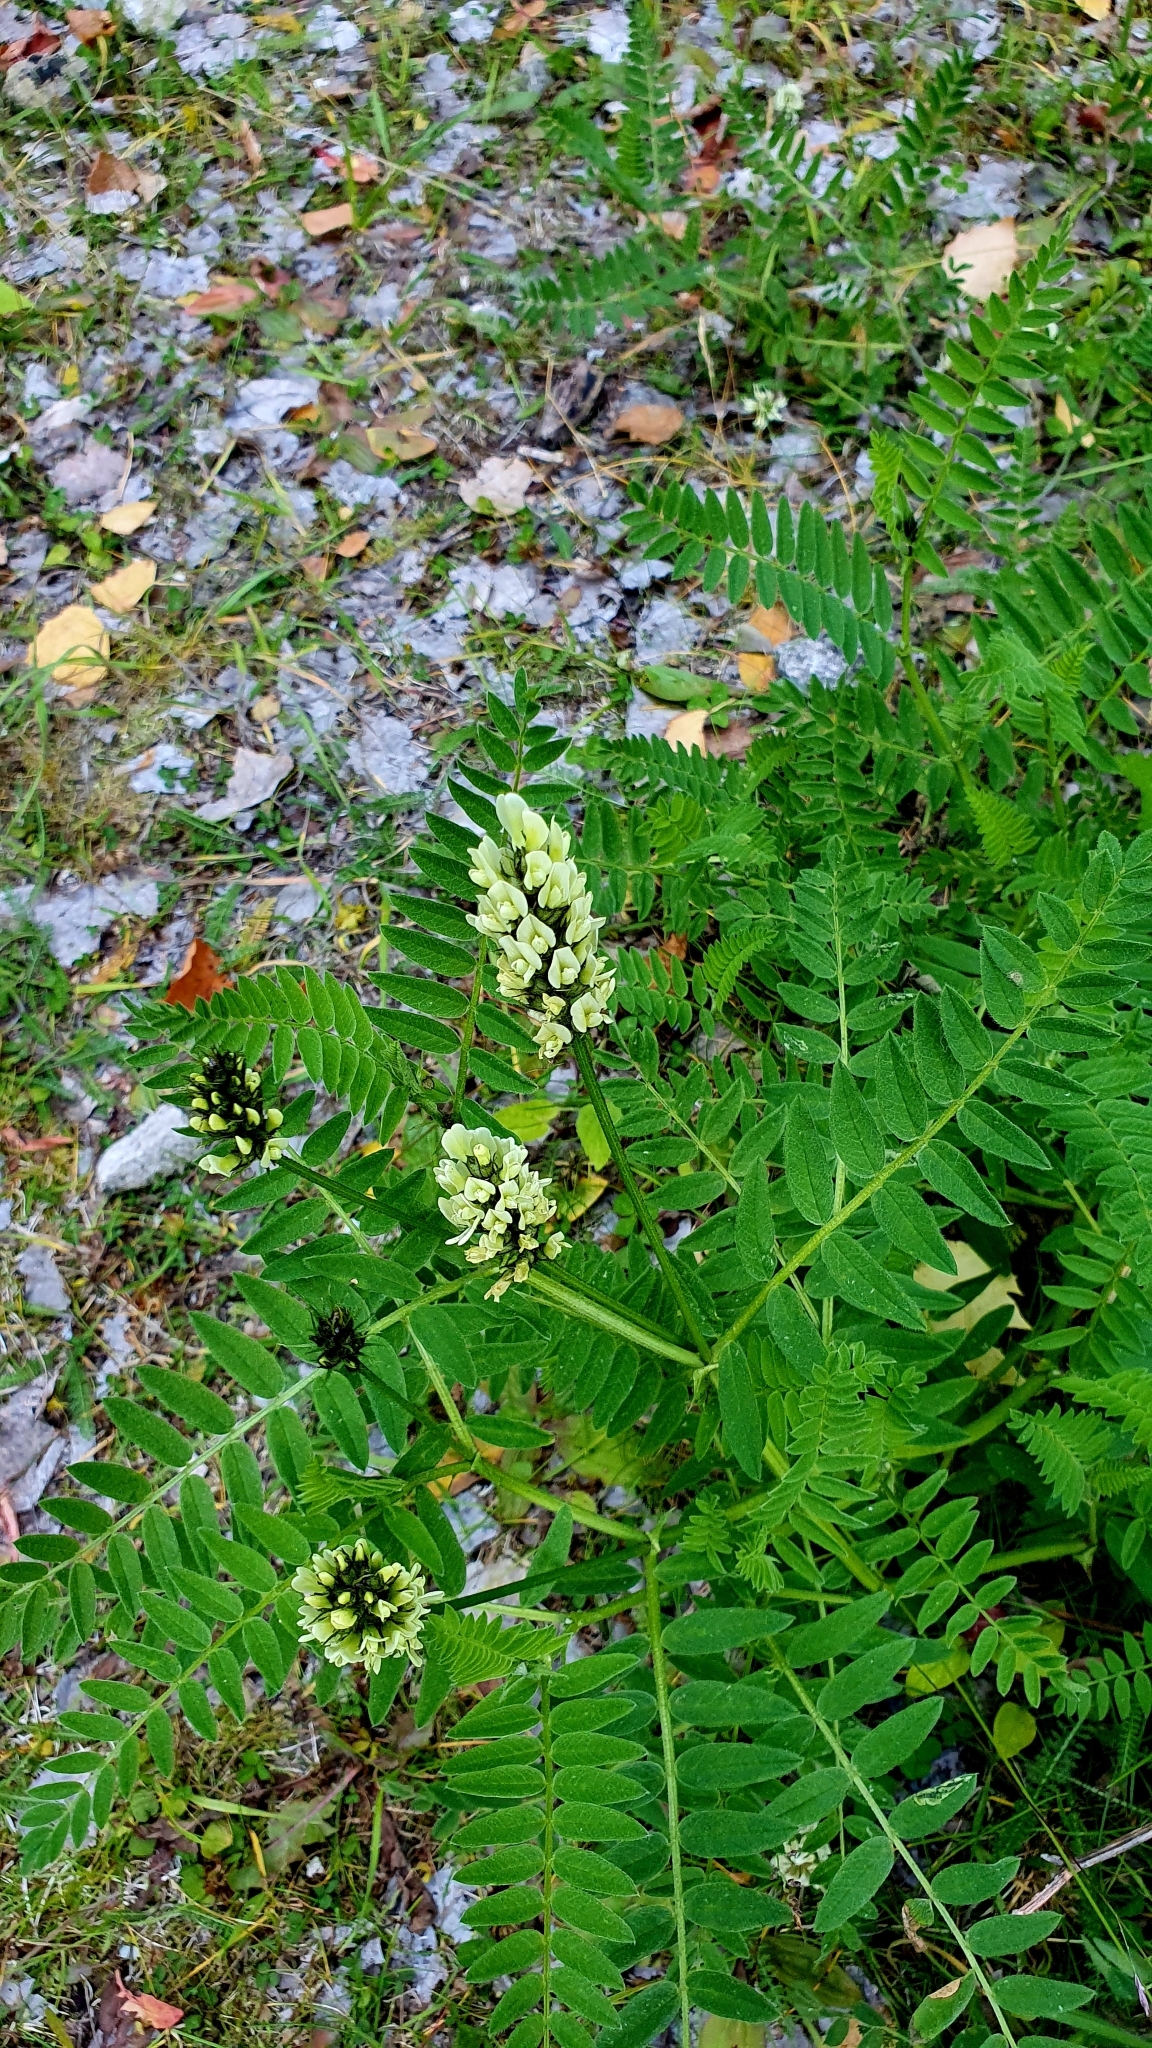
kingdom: Plantae
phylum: Tracheophyta
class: Magnoliopsida
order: Fabales
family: Fabaceae
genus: Astragalus
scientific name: Astragalus cicer
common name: Chick-pea milk-vetch
